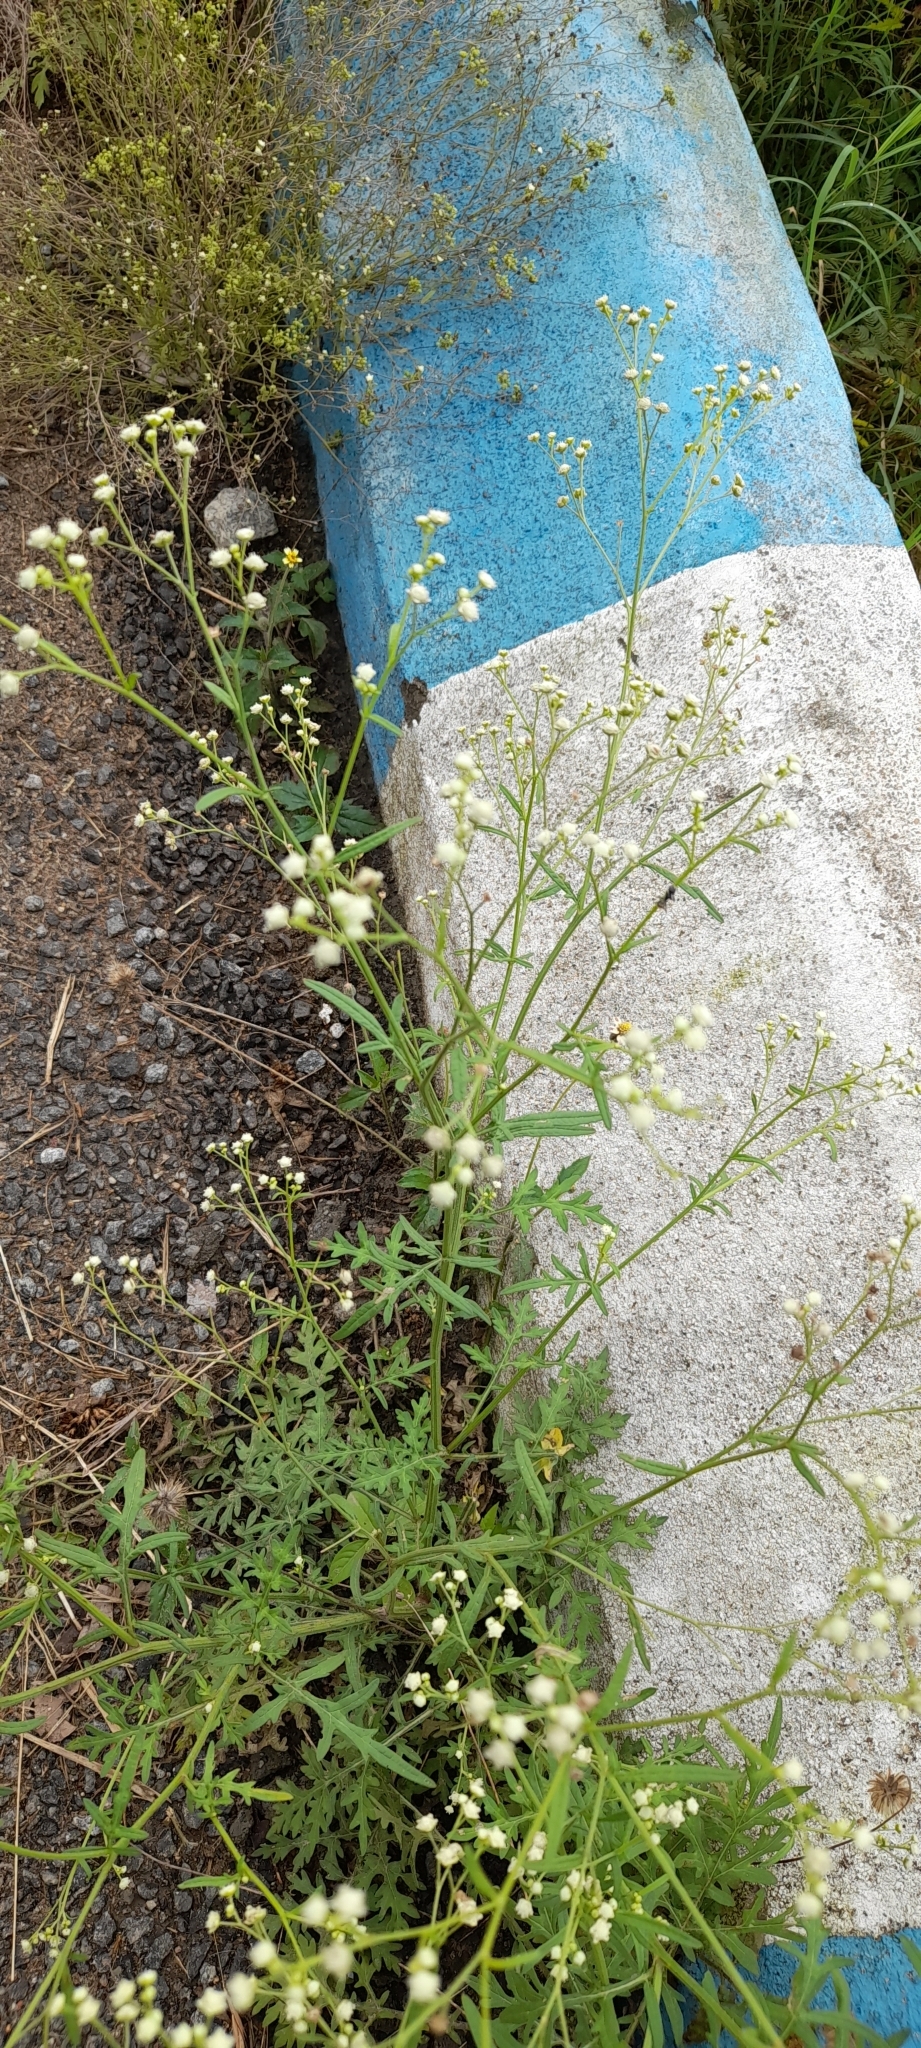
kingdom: Plantae
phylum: Tracheophyta
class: Magnoliopsida
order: Asterales
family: Asteraceae
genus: Parthenium
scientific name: Parthenium hysterophorus
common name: Santa maria feverfew
